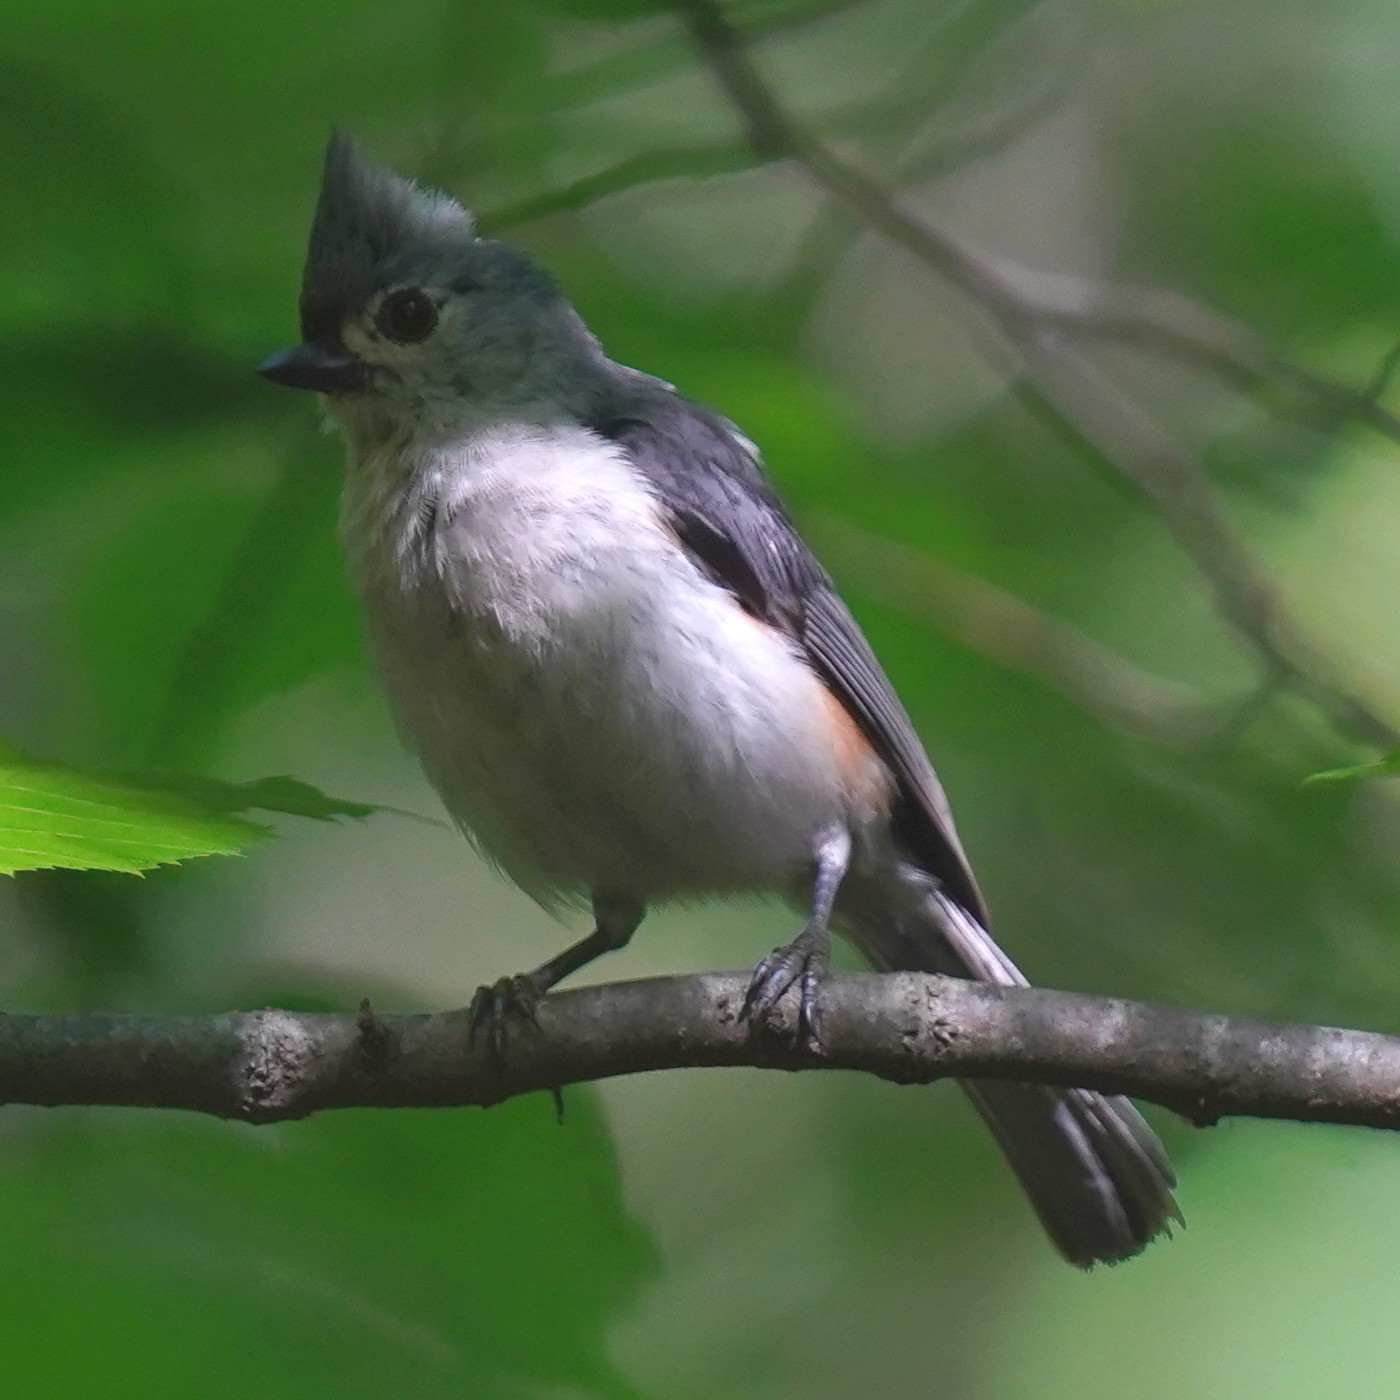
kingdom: Animalia
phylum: Chordata
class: Aves
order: Passeriformes
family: Paridae
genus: Baeolophus
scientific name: Baeolophus bicolor
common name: Tufted titmouse
